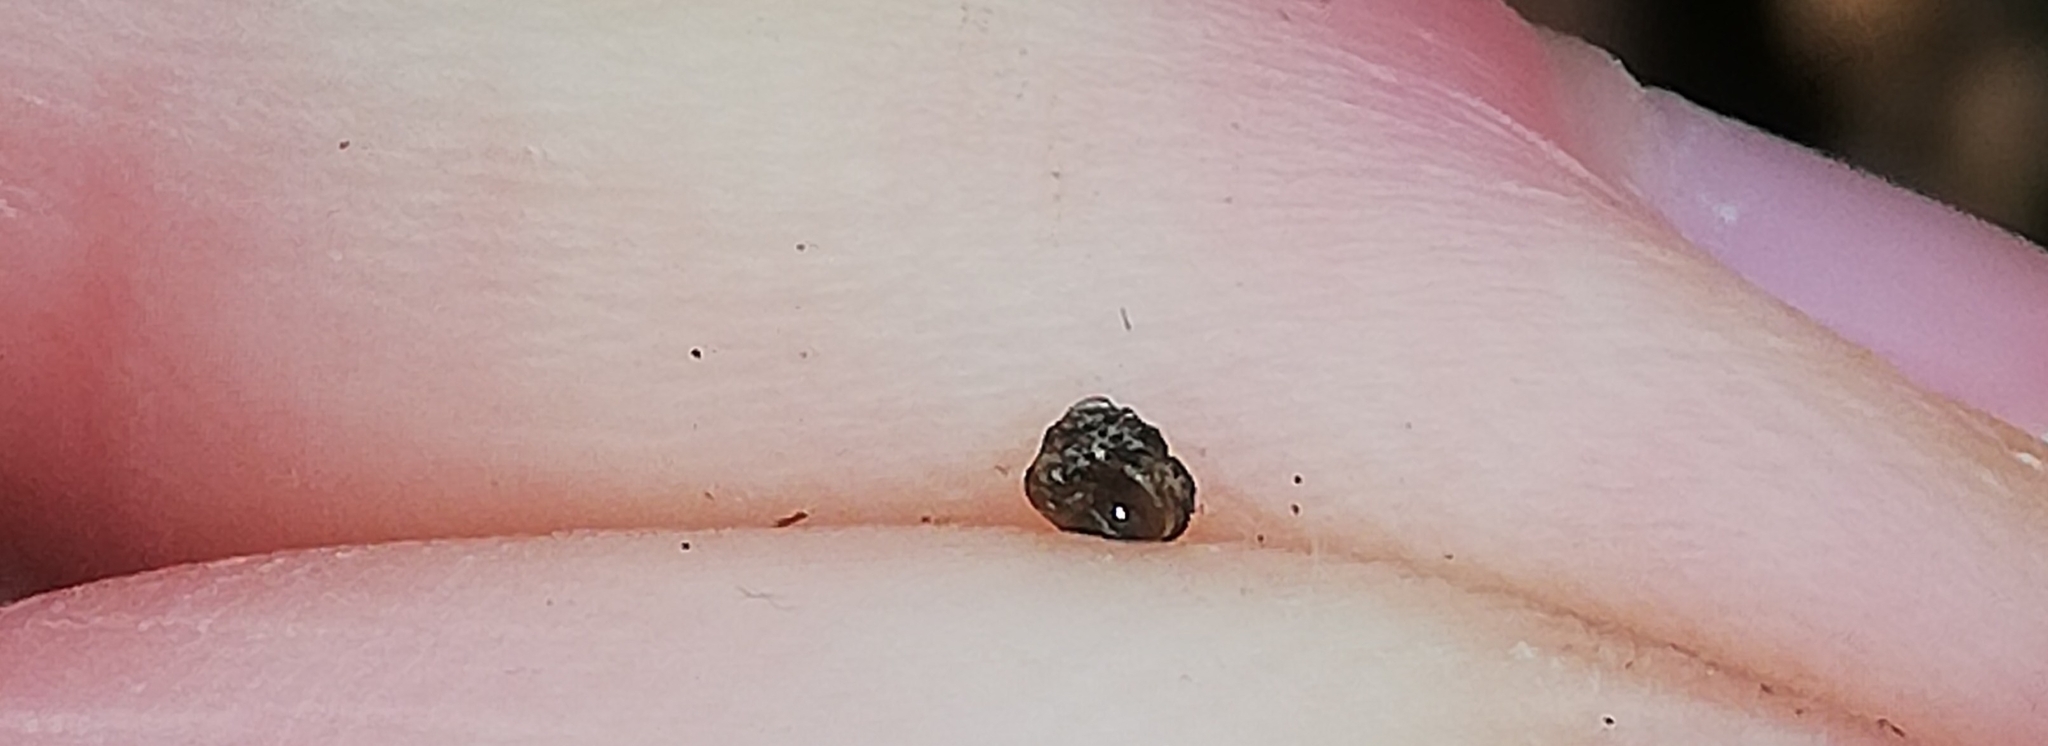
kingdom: Animalia
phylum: Mollusca
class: Gastropoda
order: Stylommatophora
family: Valloniidae
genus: Acanthinula
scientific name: Acanthinula aculeata
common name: Prickly snail
